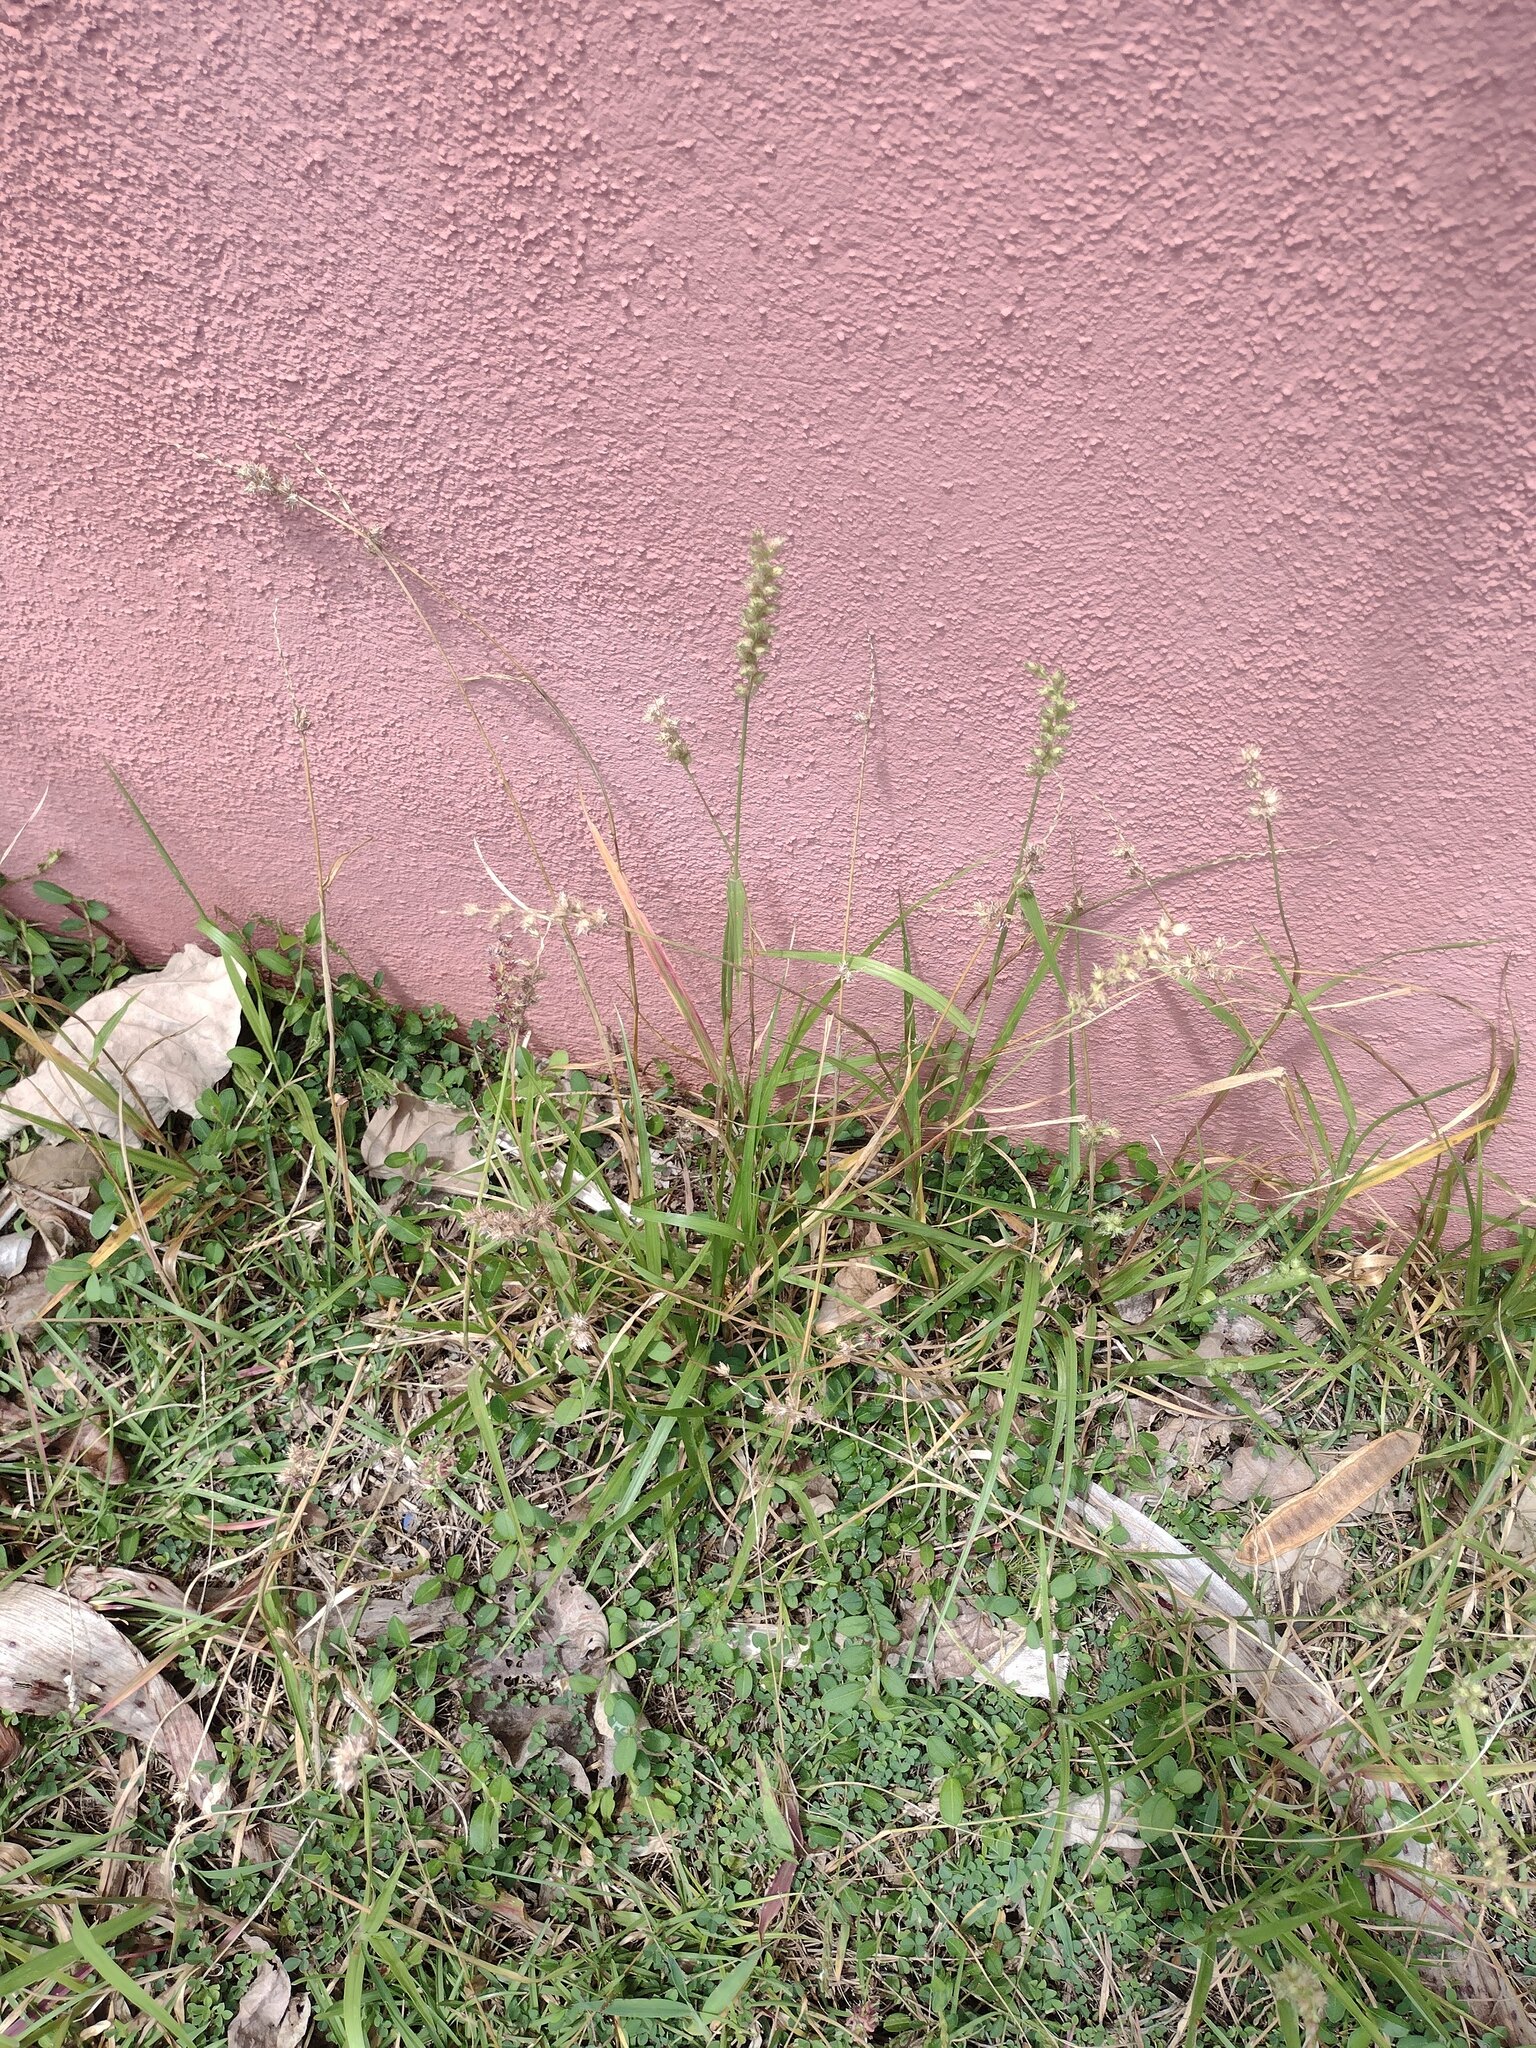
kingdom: Plantae
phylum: Tracheophyta
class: Liliopsida
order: Poales
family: Poaceae
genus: Cenchrus
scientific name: Cenchrus echinatus
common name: Southern sandbur
